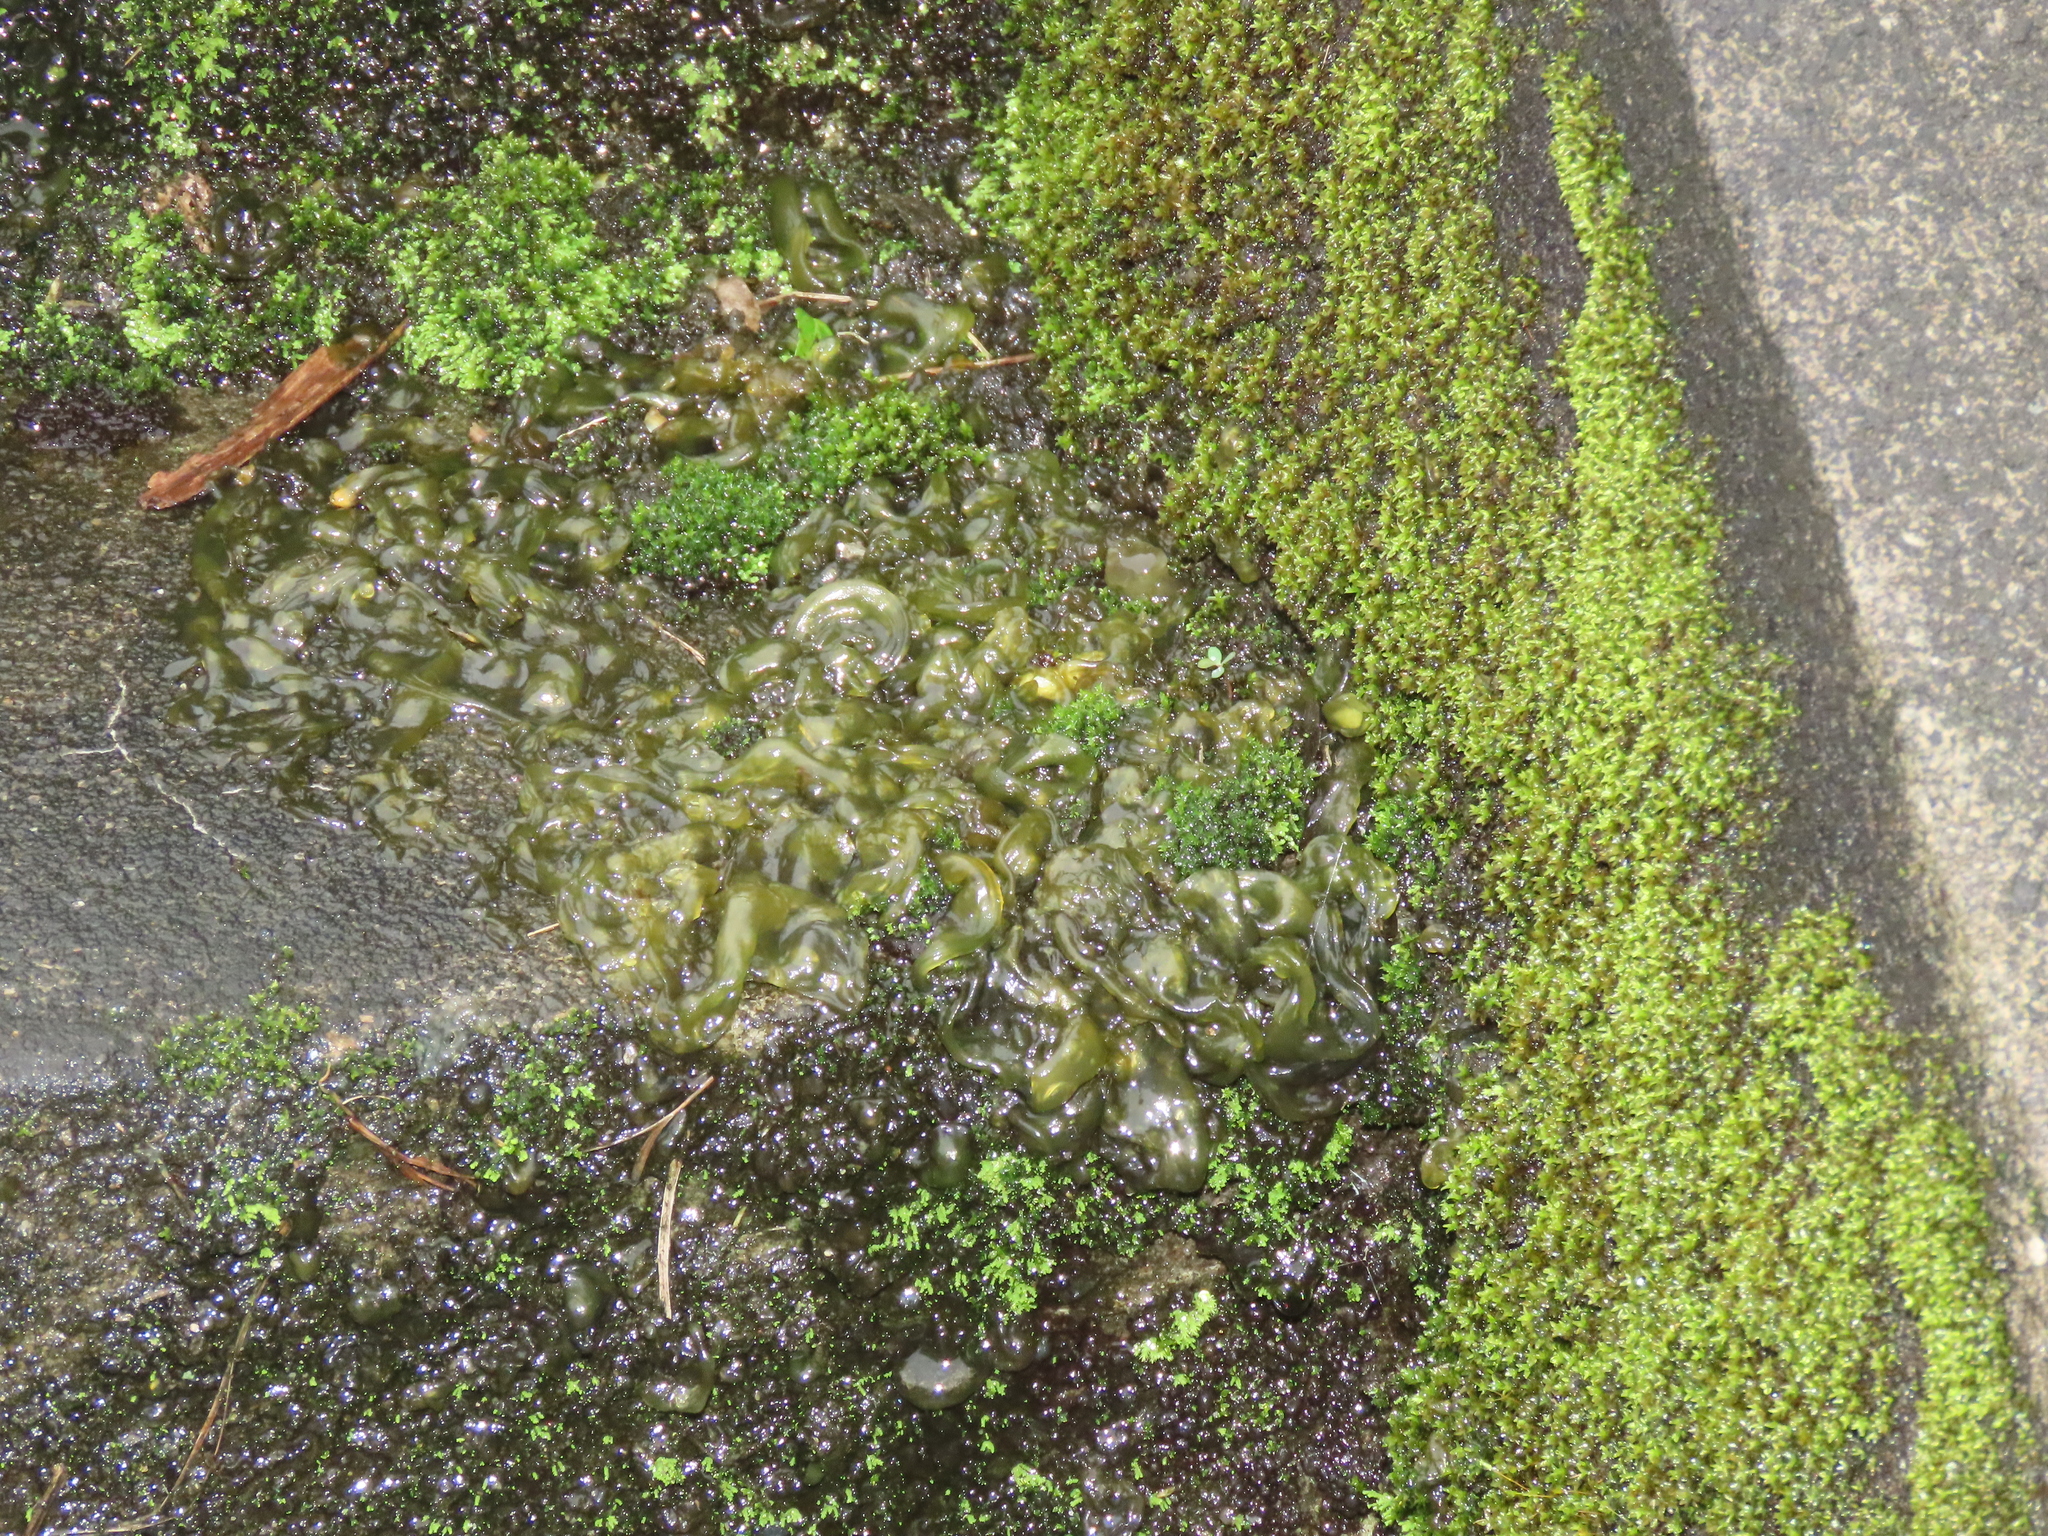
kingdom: Bacteria
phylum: Cyanobacteria
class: Cyanobacteriia
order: Cyanobacteriales
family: Nostocaceae
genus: Nostoc
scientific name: Nostoc commune
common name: Star jelly
